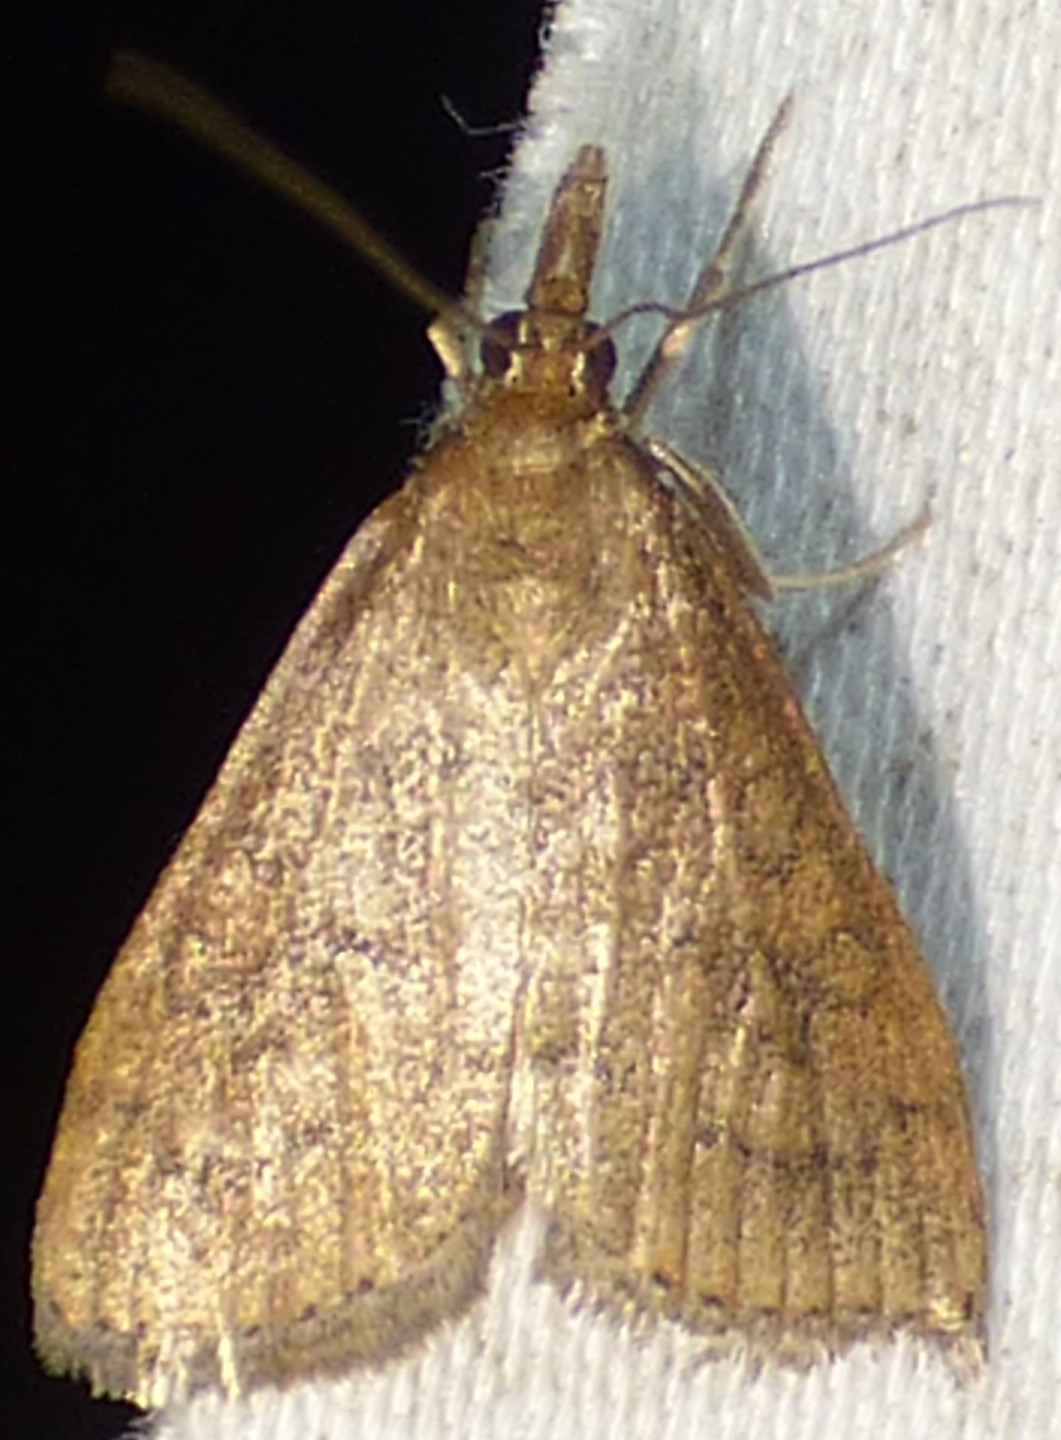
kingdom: Animalia
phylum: Arthropoda
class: Insecta
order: Lepidoptera
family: Crambidae
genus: Udea
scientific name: Udea rubigalis
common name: Celery leaftier moth
